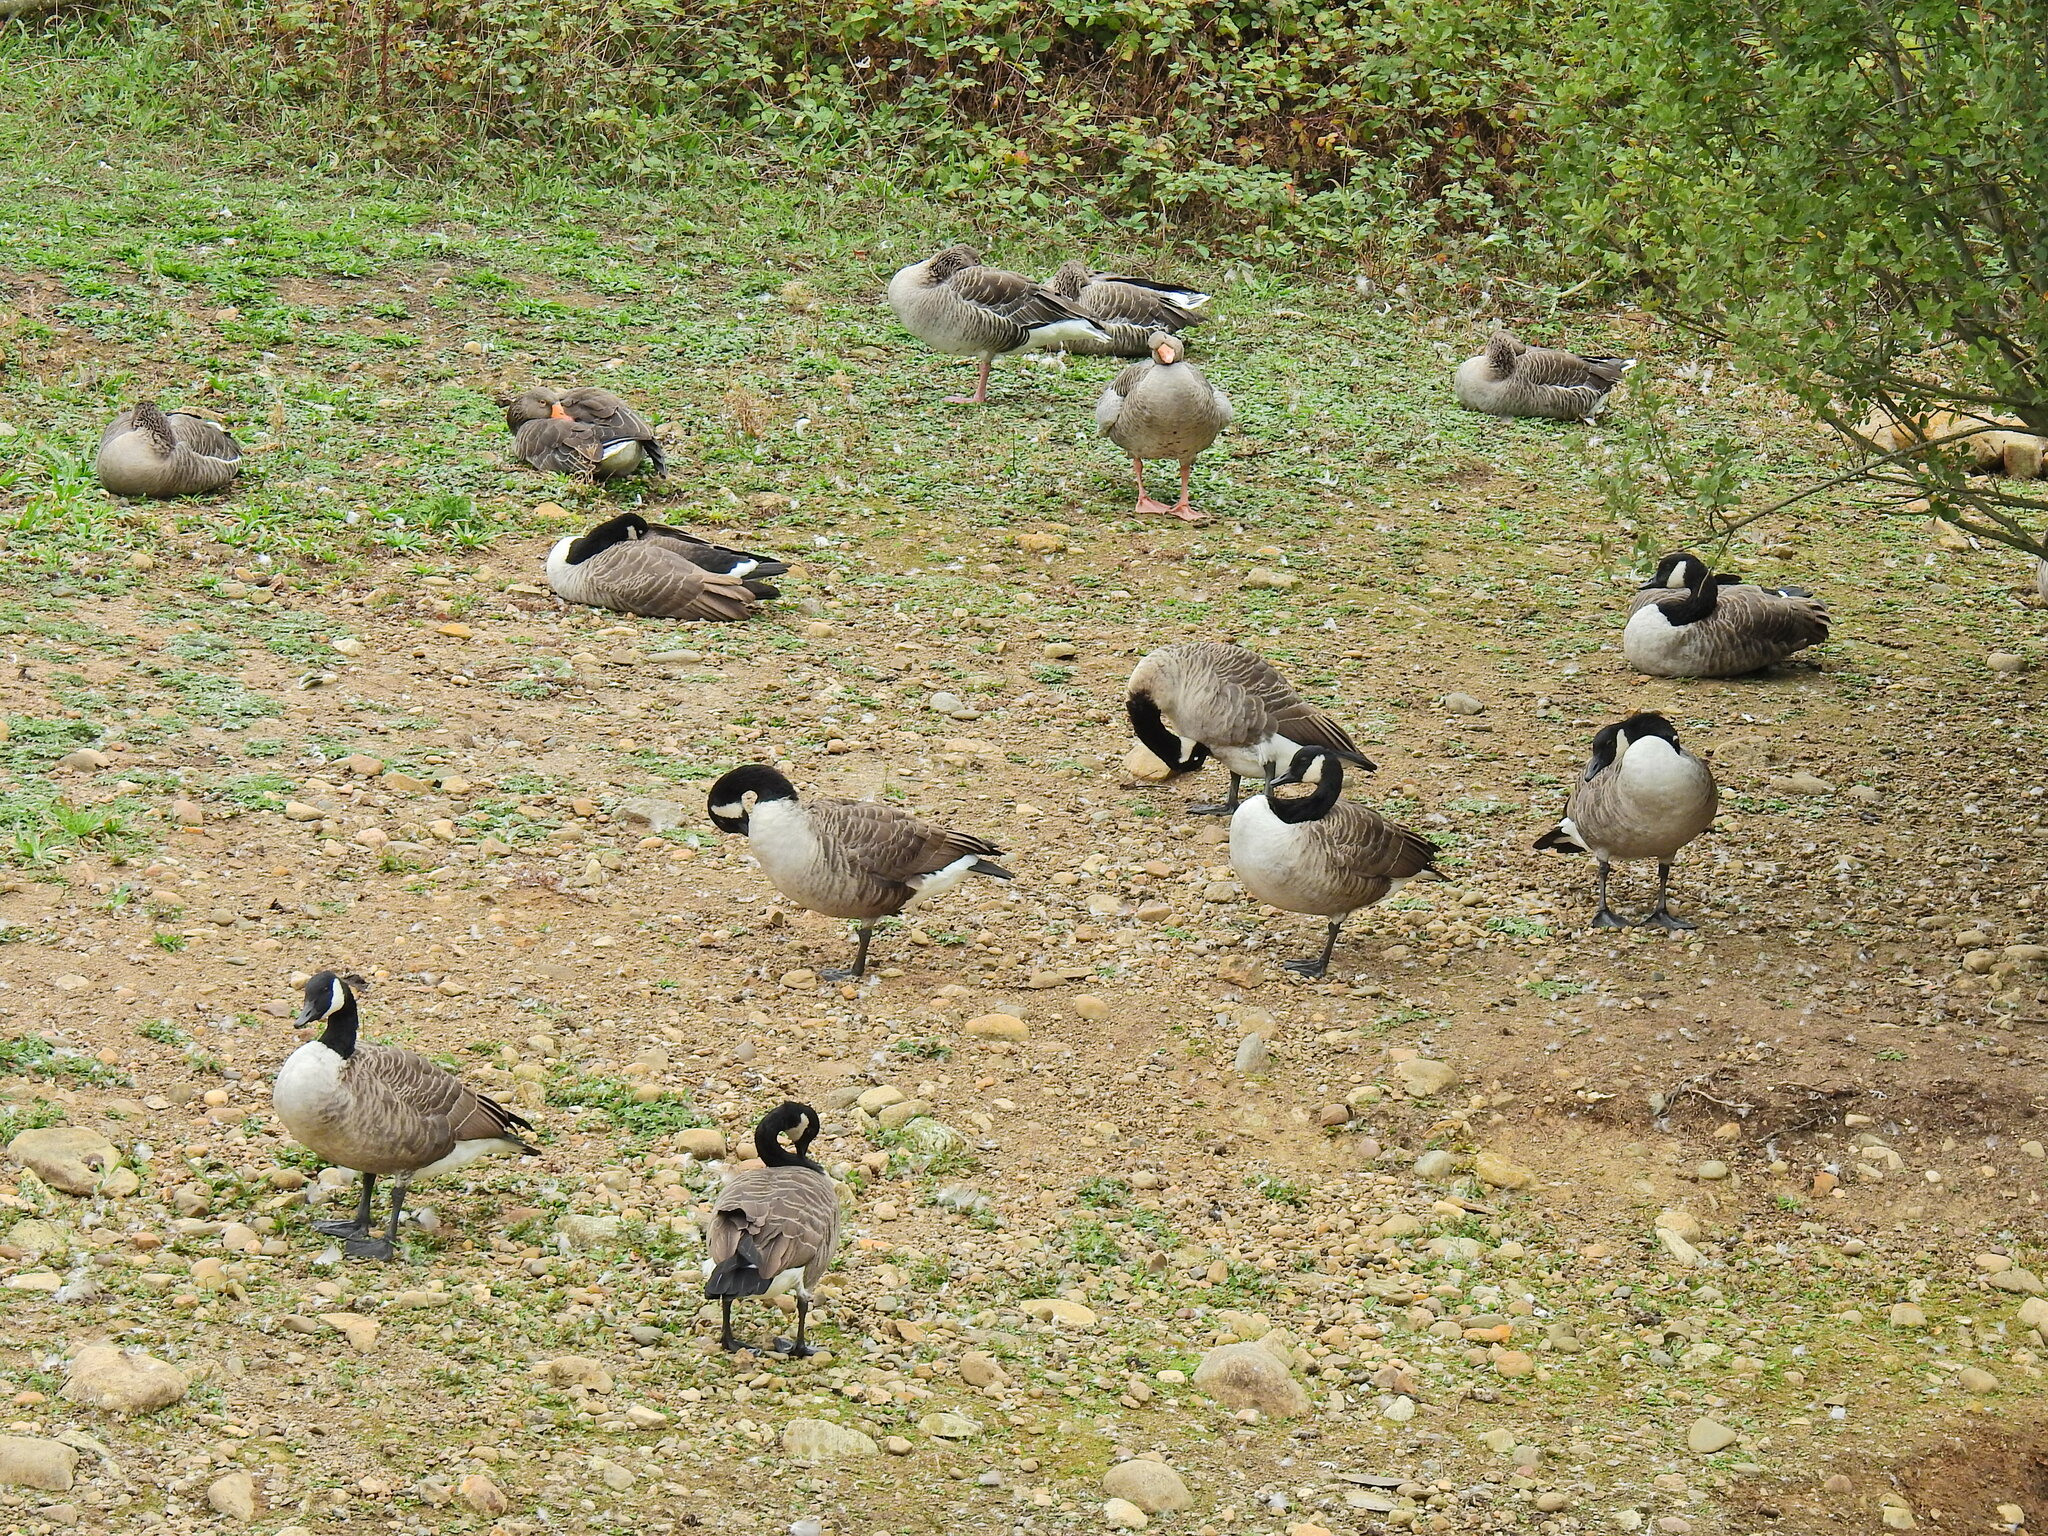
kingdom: Animalia
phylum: Chordata
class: Aves
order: Anseriformes
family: Anatidae
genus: Branta
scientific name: Branta canadensis
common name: Canada goose
